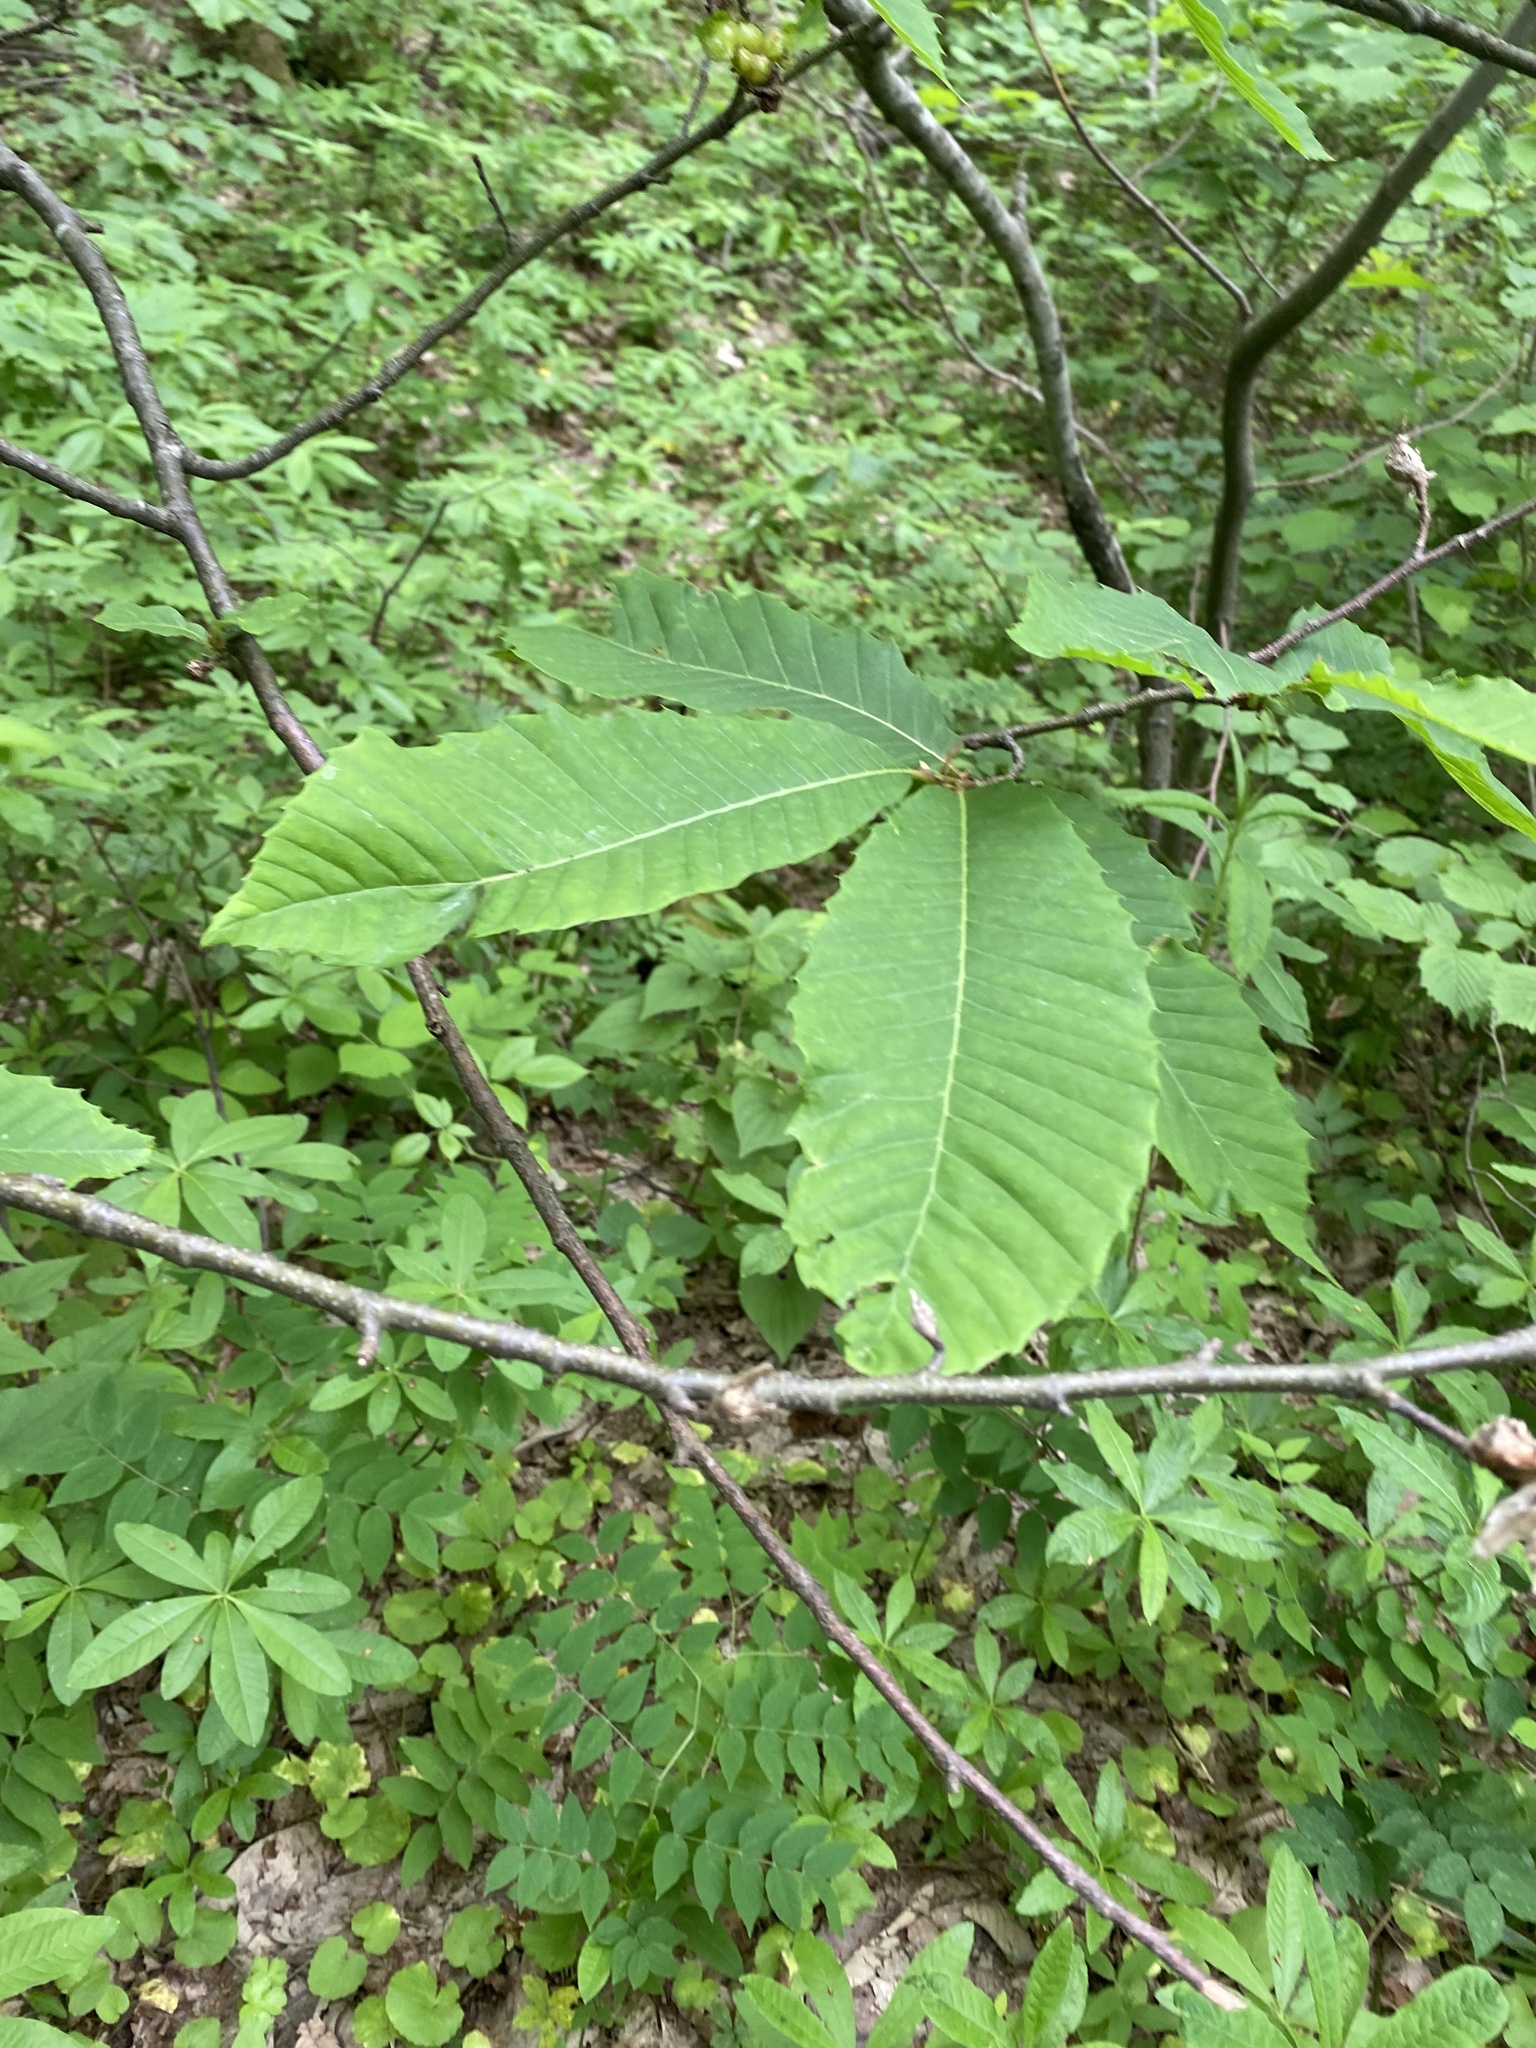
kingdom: Animalia
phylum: Arthropoda
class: Insecta
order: Hymenoptera
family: Cynipidae
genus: Dryocosmus
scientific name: Dryocosmus kuriphilus
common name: Asian chestnut gall wasp
